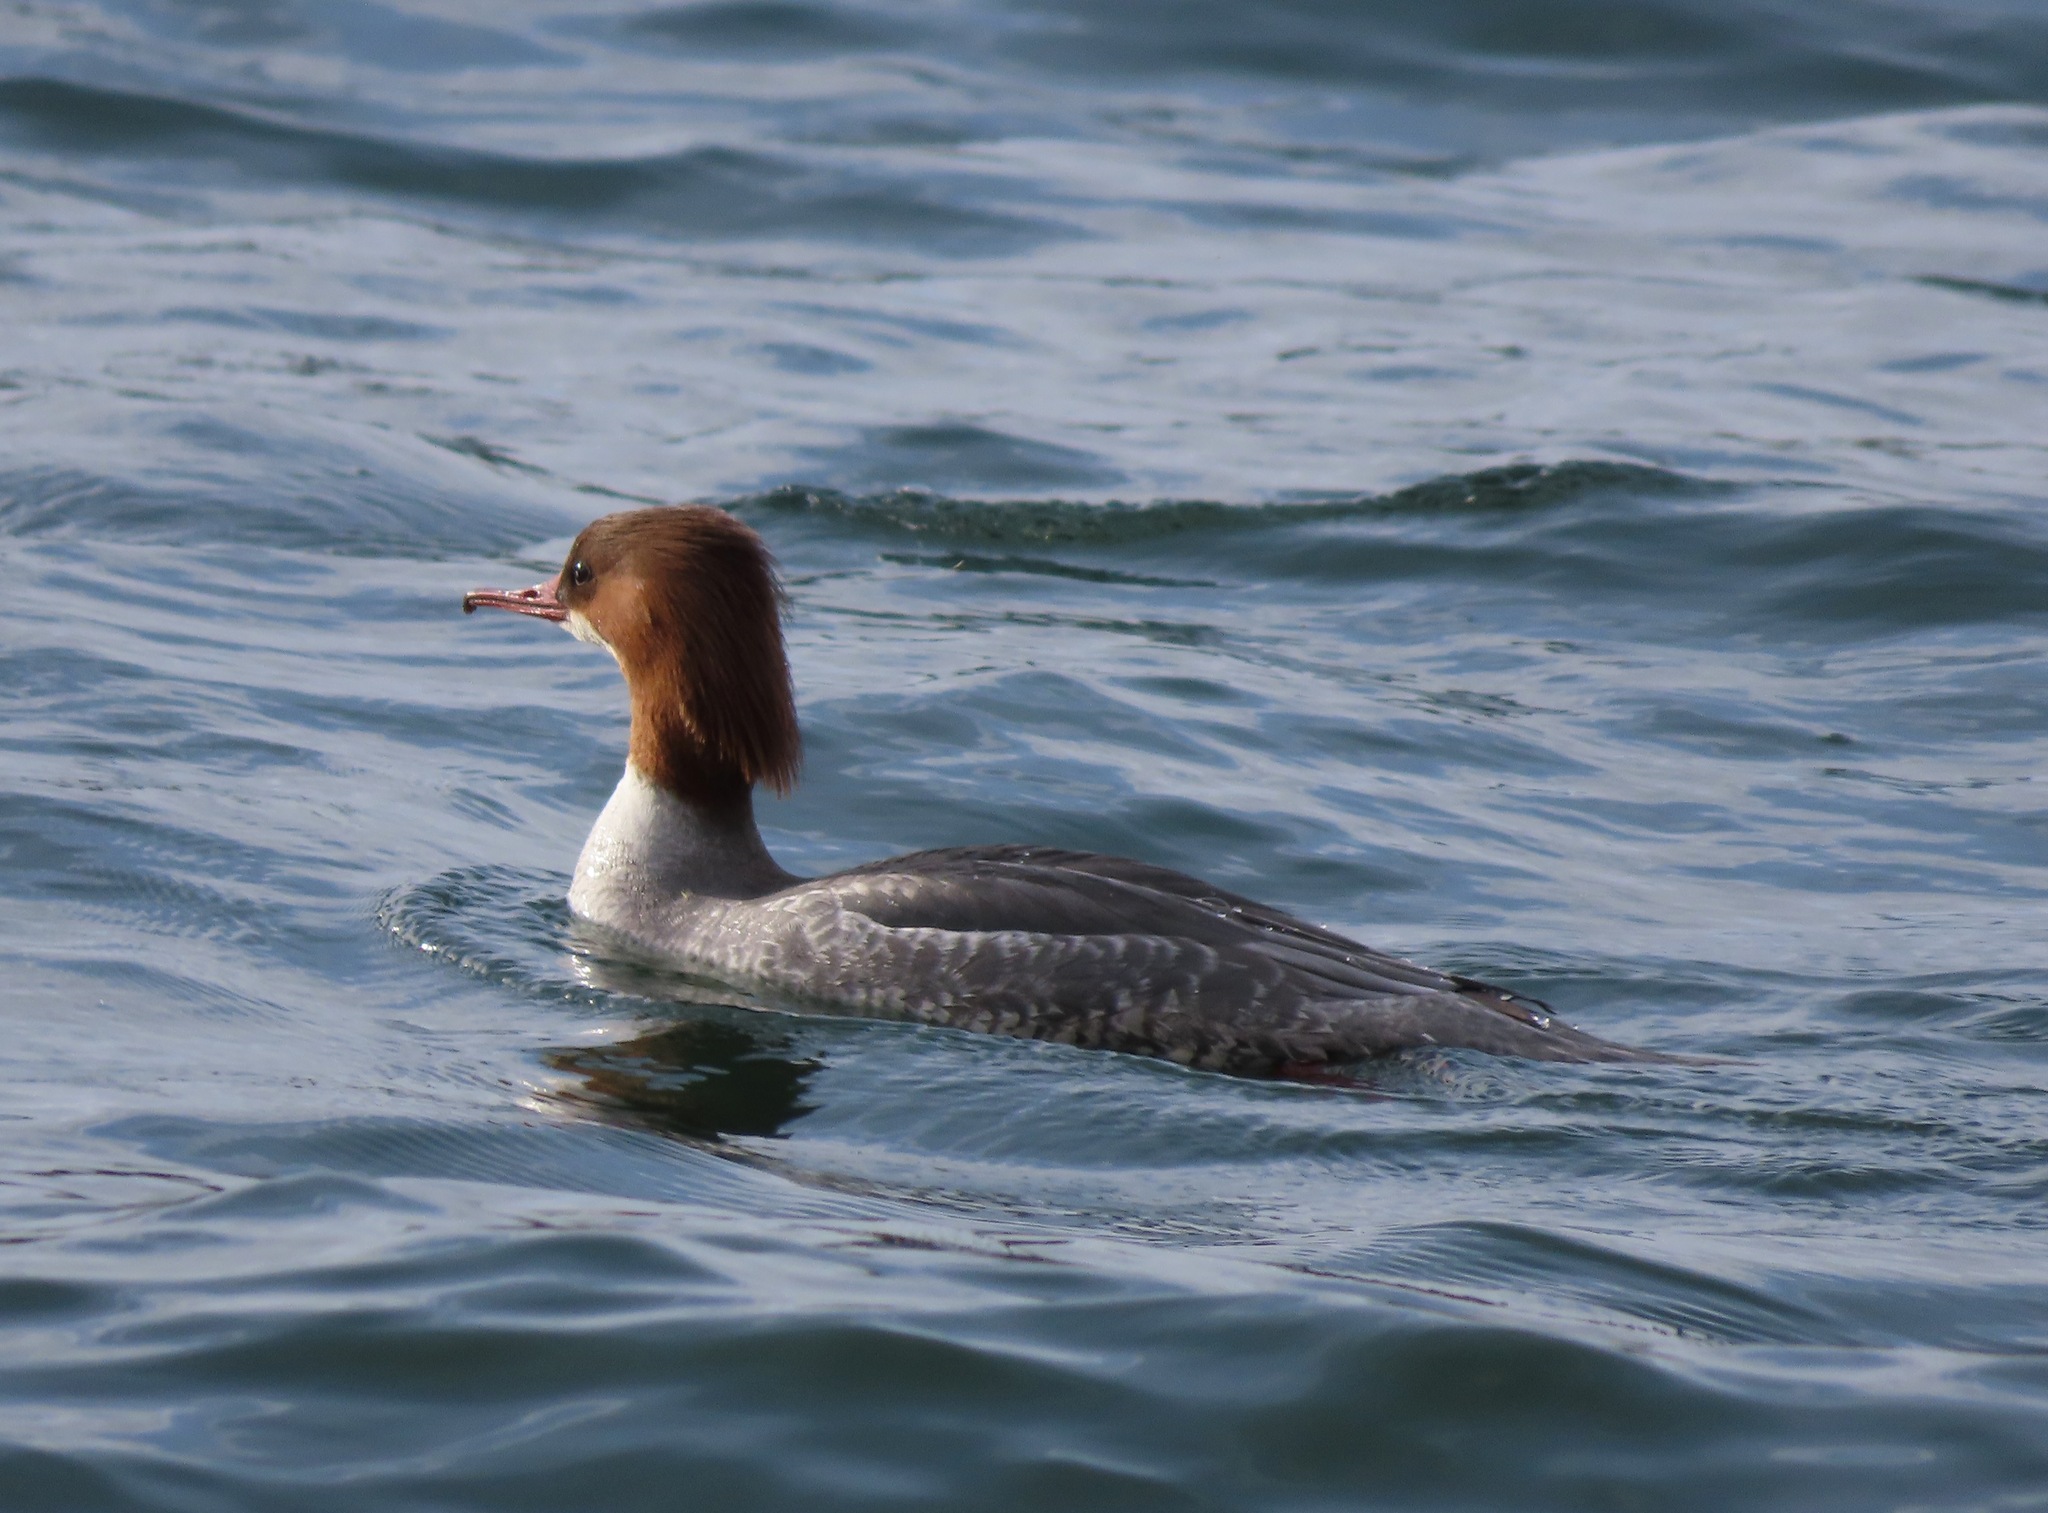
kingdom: Animalia
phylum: Chordata
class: Aves
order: Anseriformes
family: Anatidae
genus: Mergus
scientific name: Mergus merganser
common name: Common merganser
